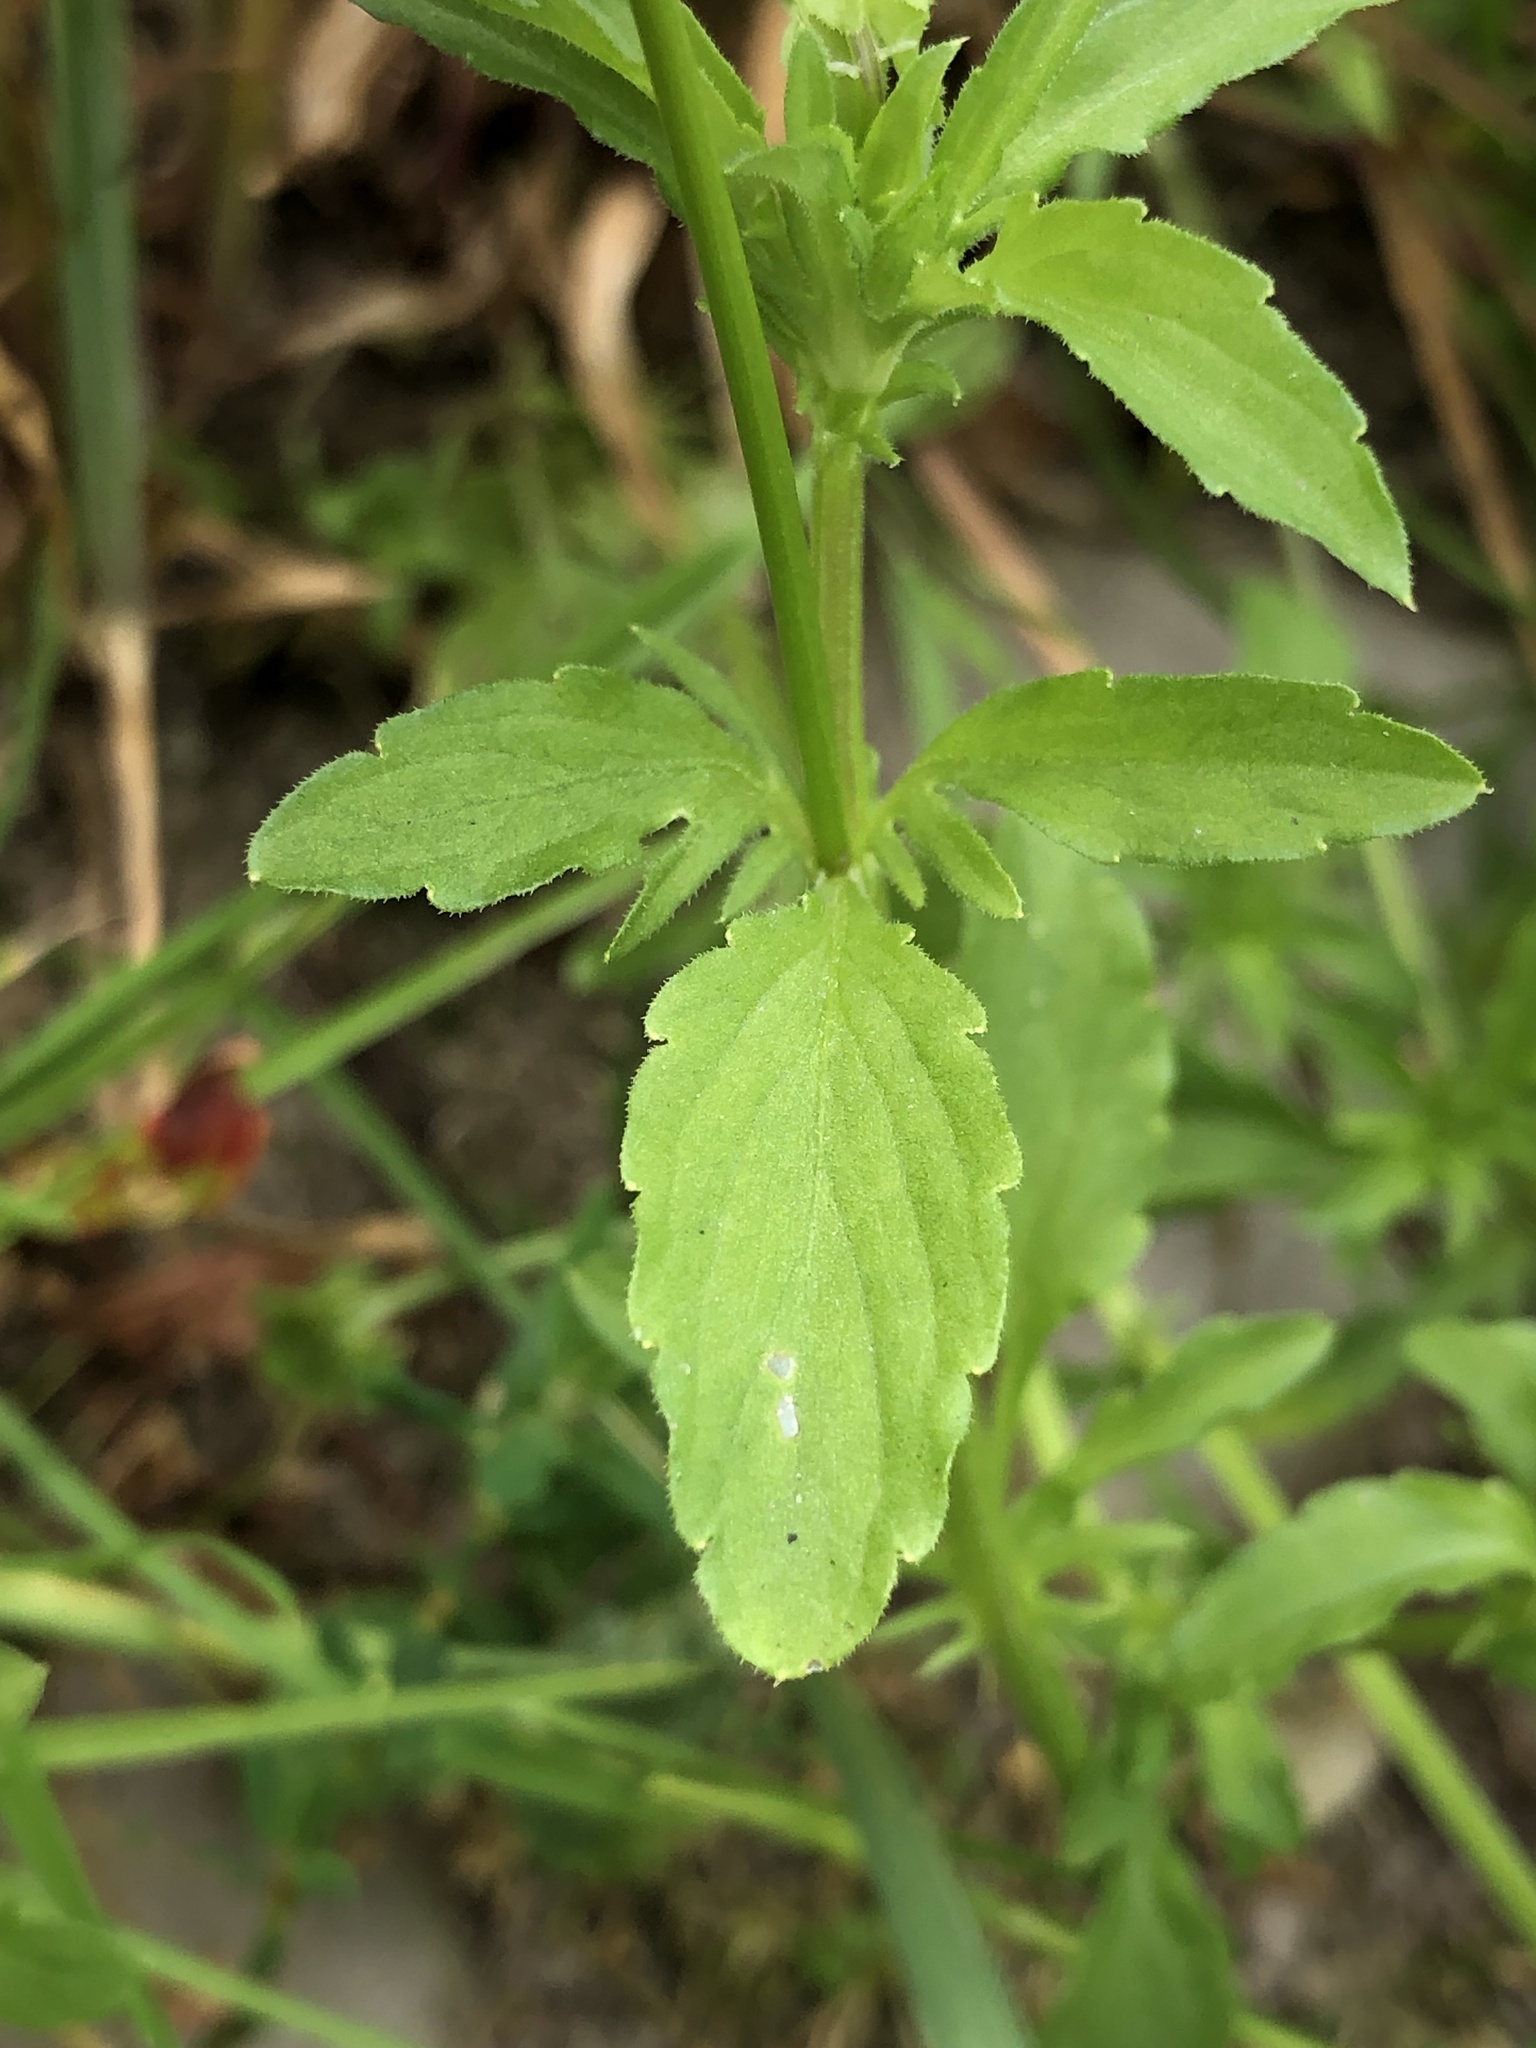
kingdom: Plantae
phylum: Tracheophyta
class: Magnoliopsida
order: Malpighiales
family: Violaceae
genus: Viola
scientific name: Viola arvensis
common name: Field pansy
